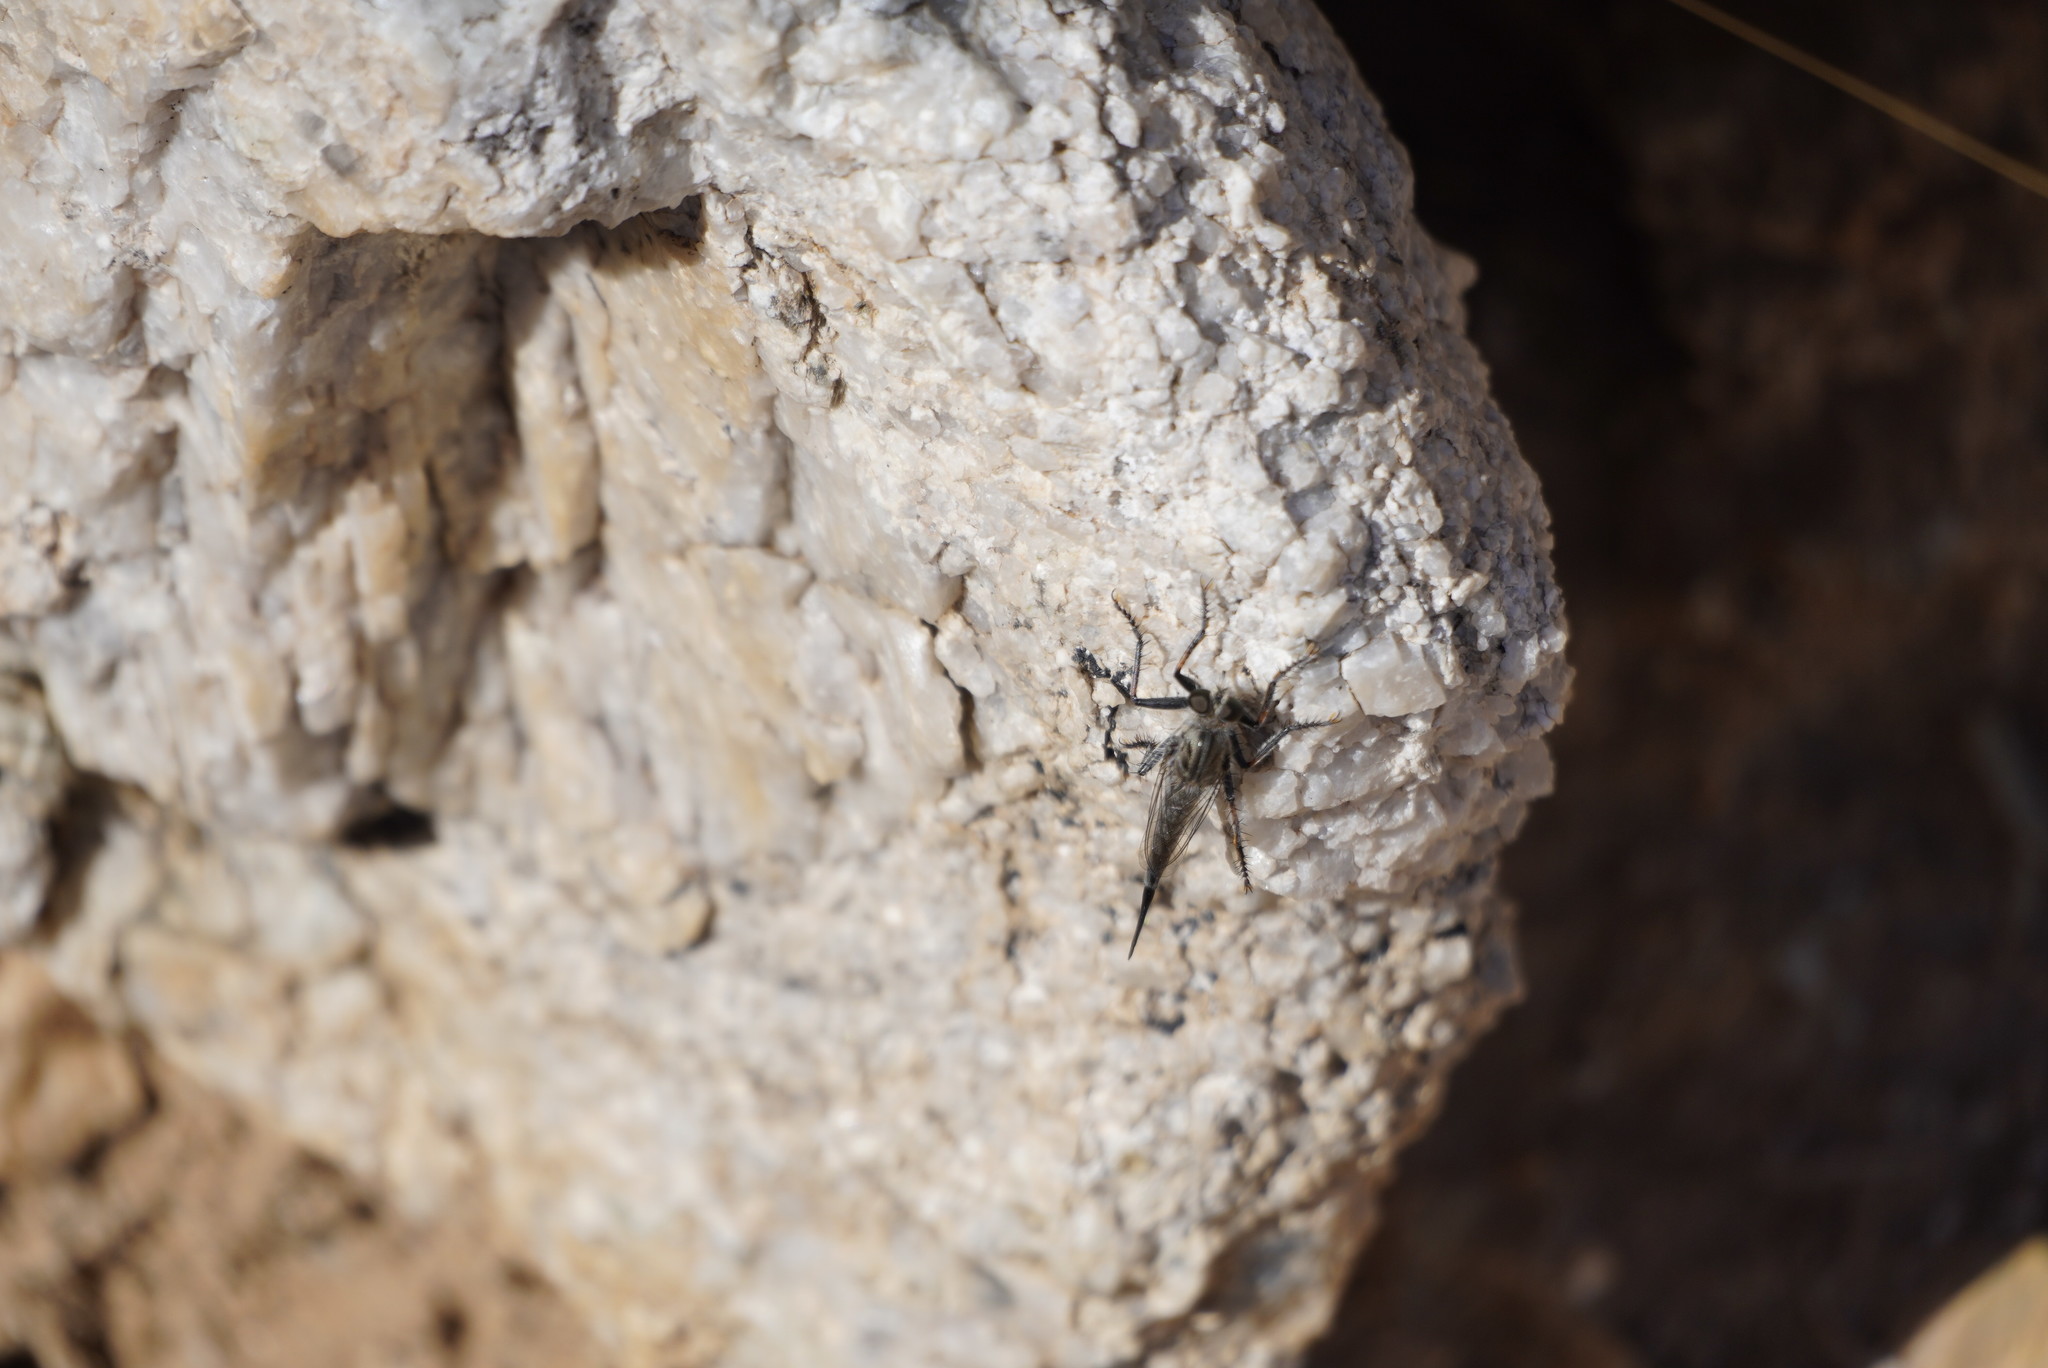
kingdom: Animalia
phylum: Arthropoda
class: Insecta
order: Diptera
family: Asilidae
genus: Efferia
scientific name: Efferia
